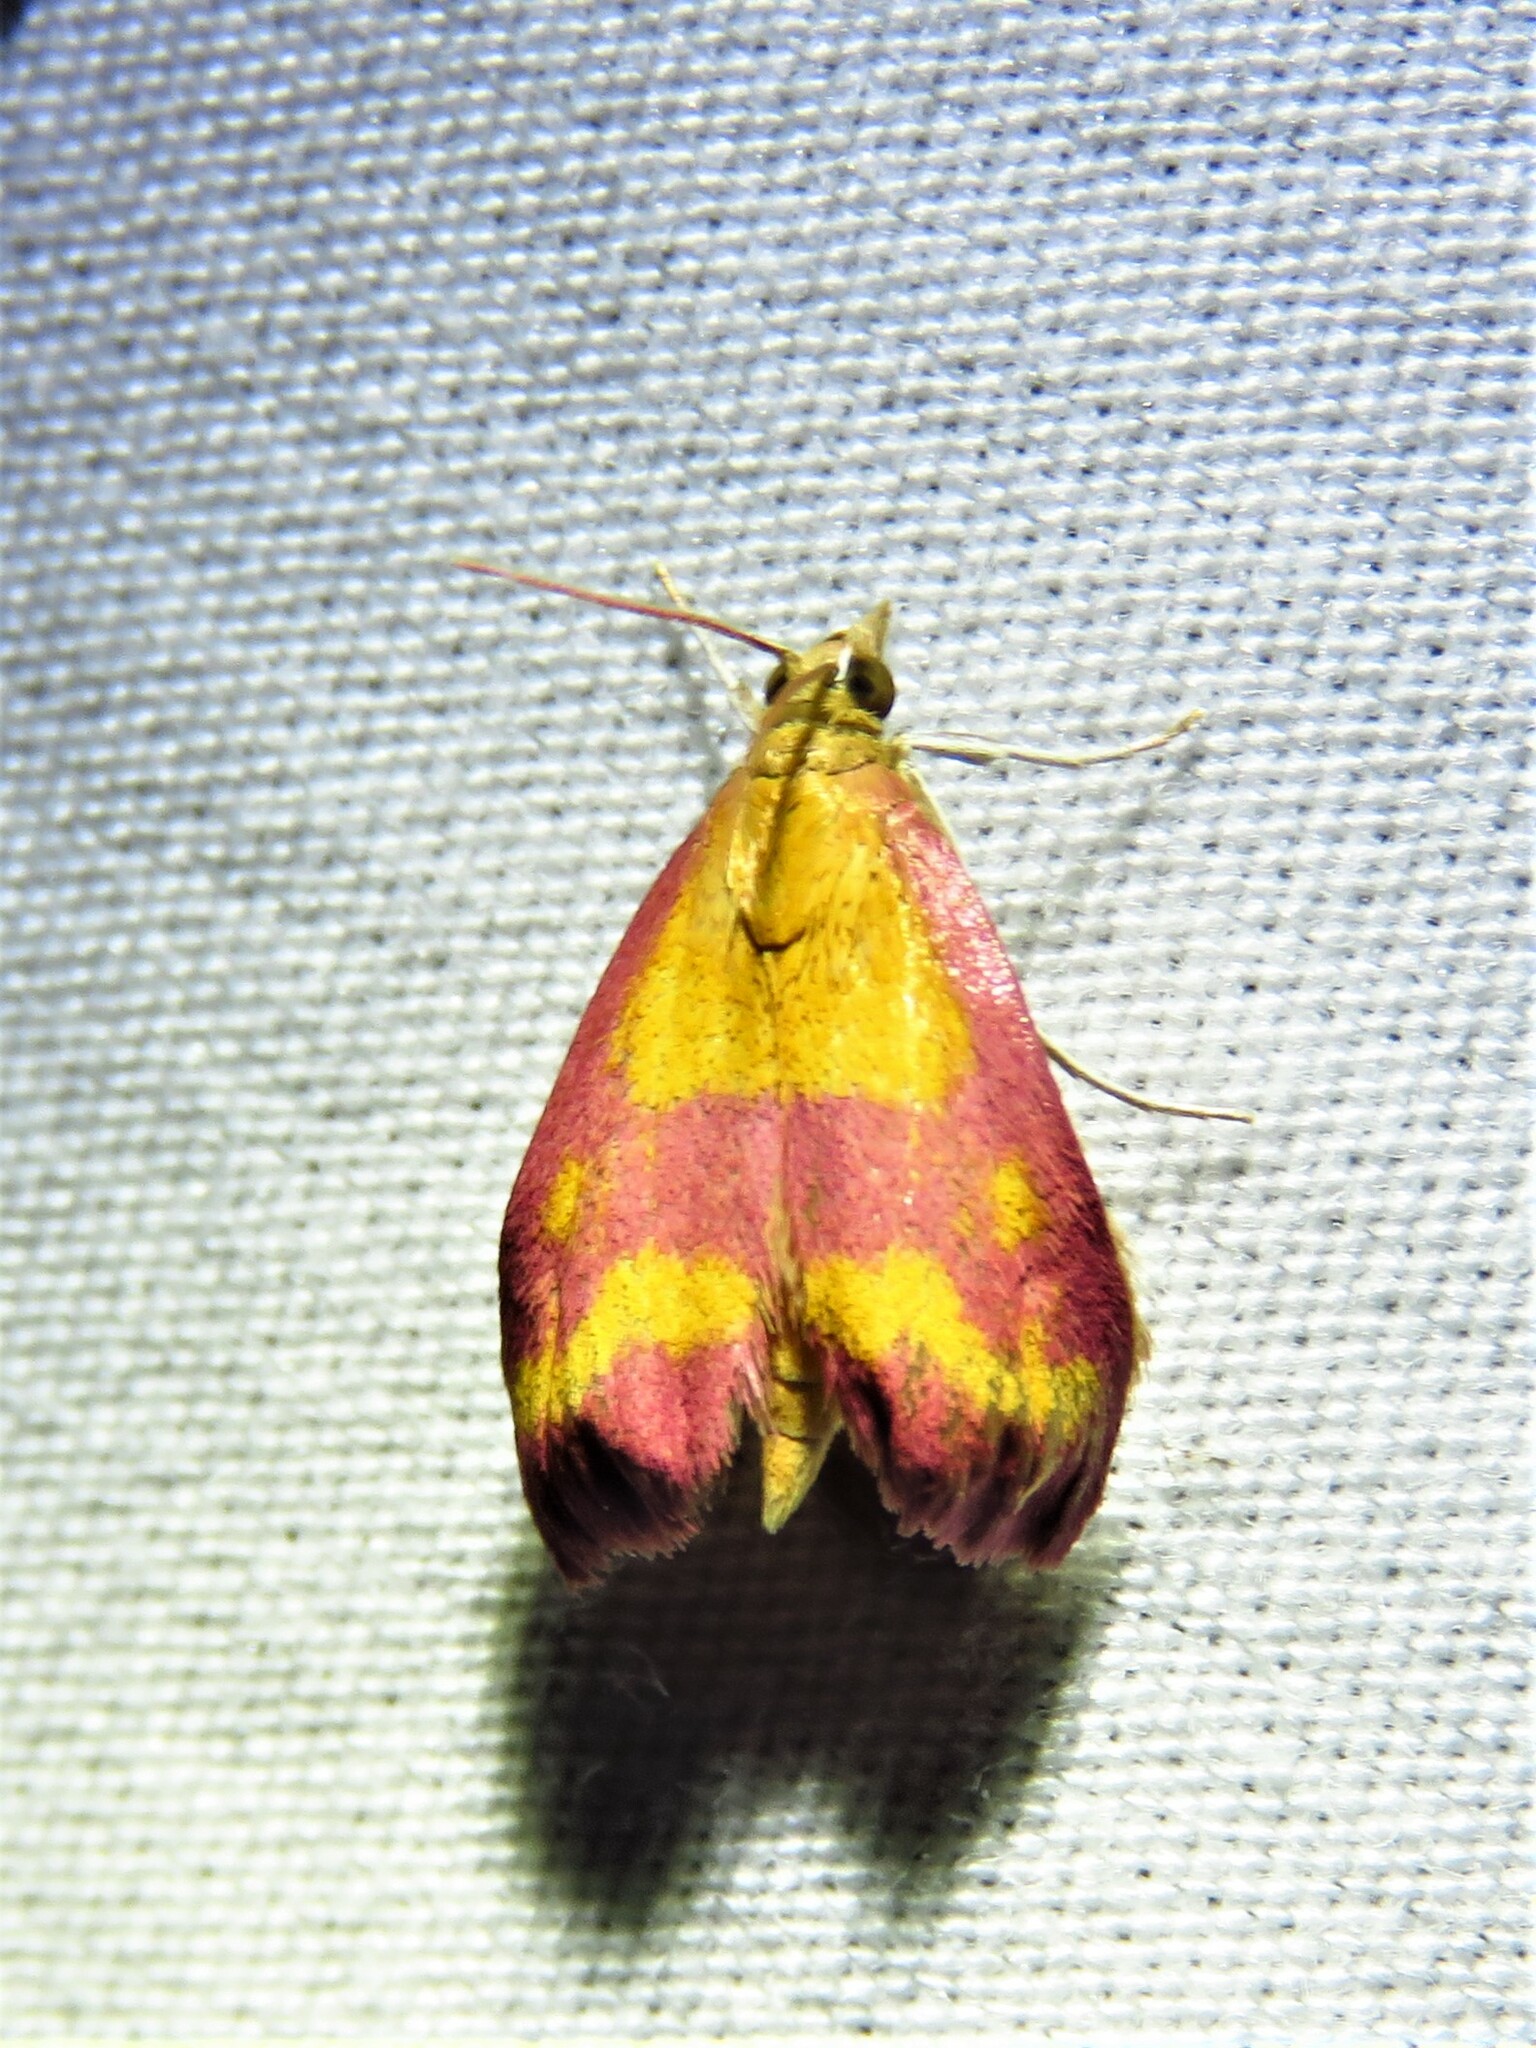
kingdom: Animalia
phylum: Arthropoda
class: Insecta
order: Lepidoptera
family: Crambidae
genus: Pyrausta
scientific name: Pyrausta laticlavia
